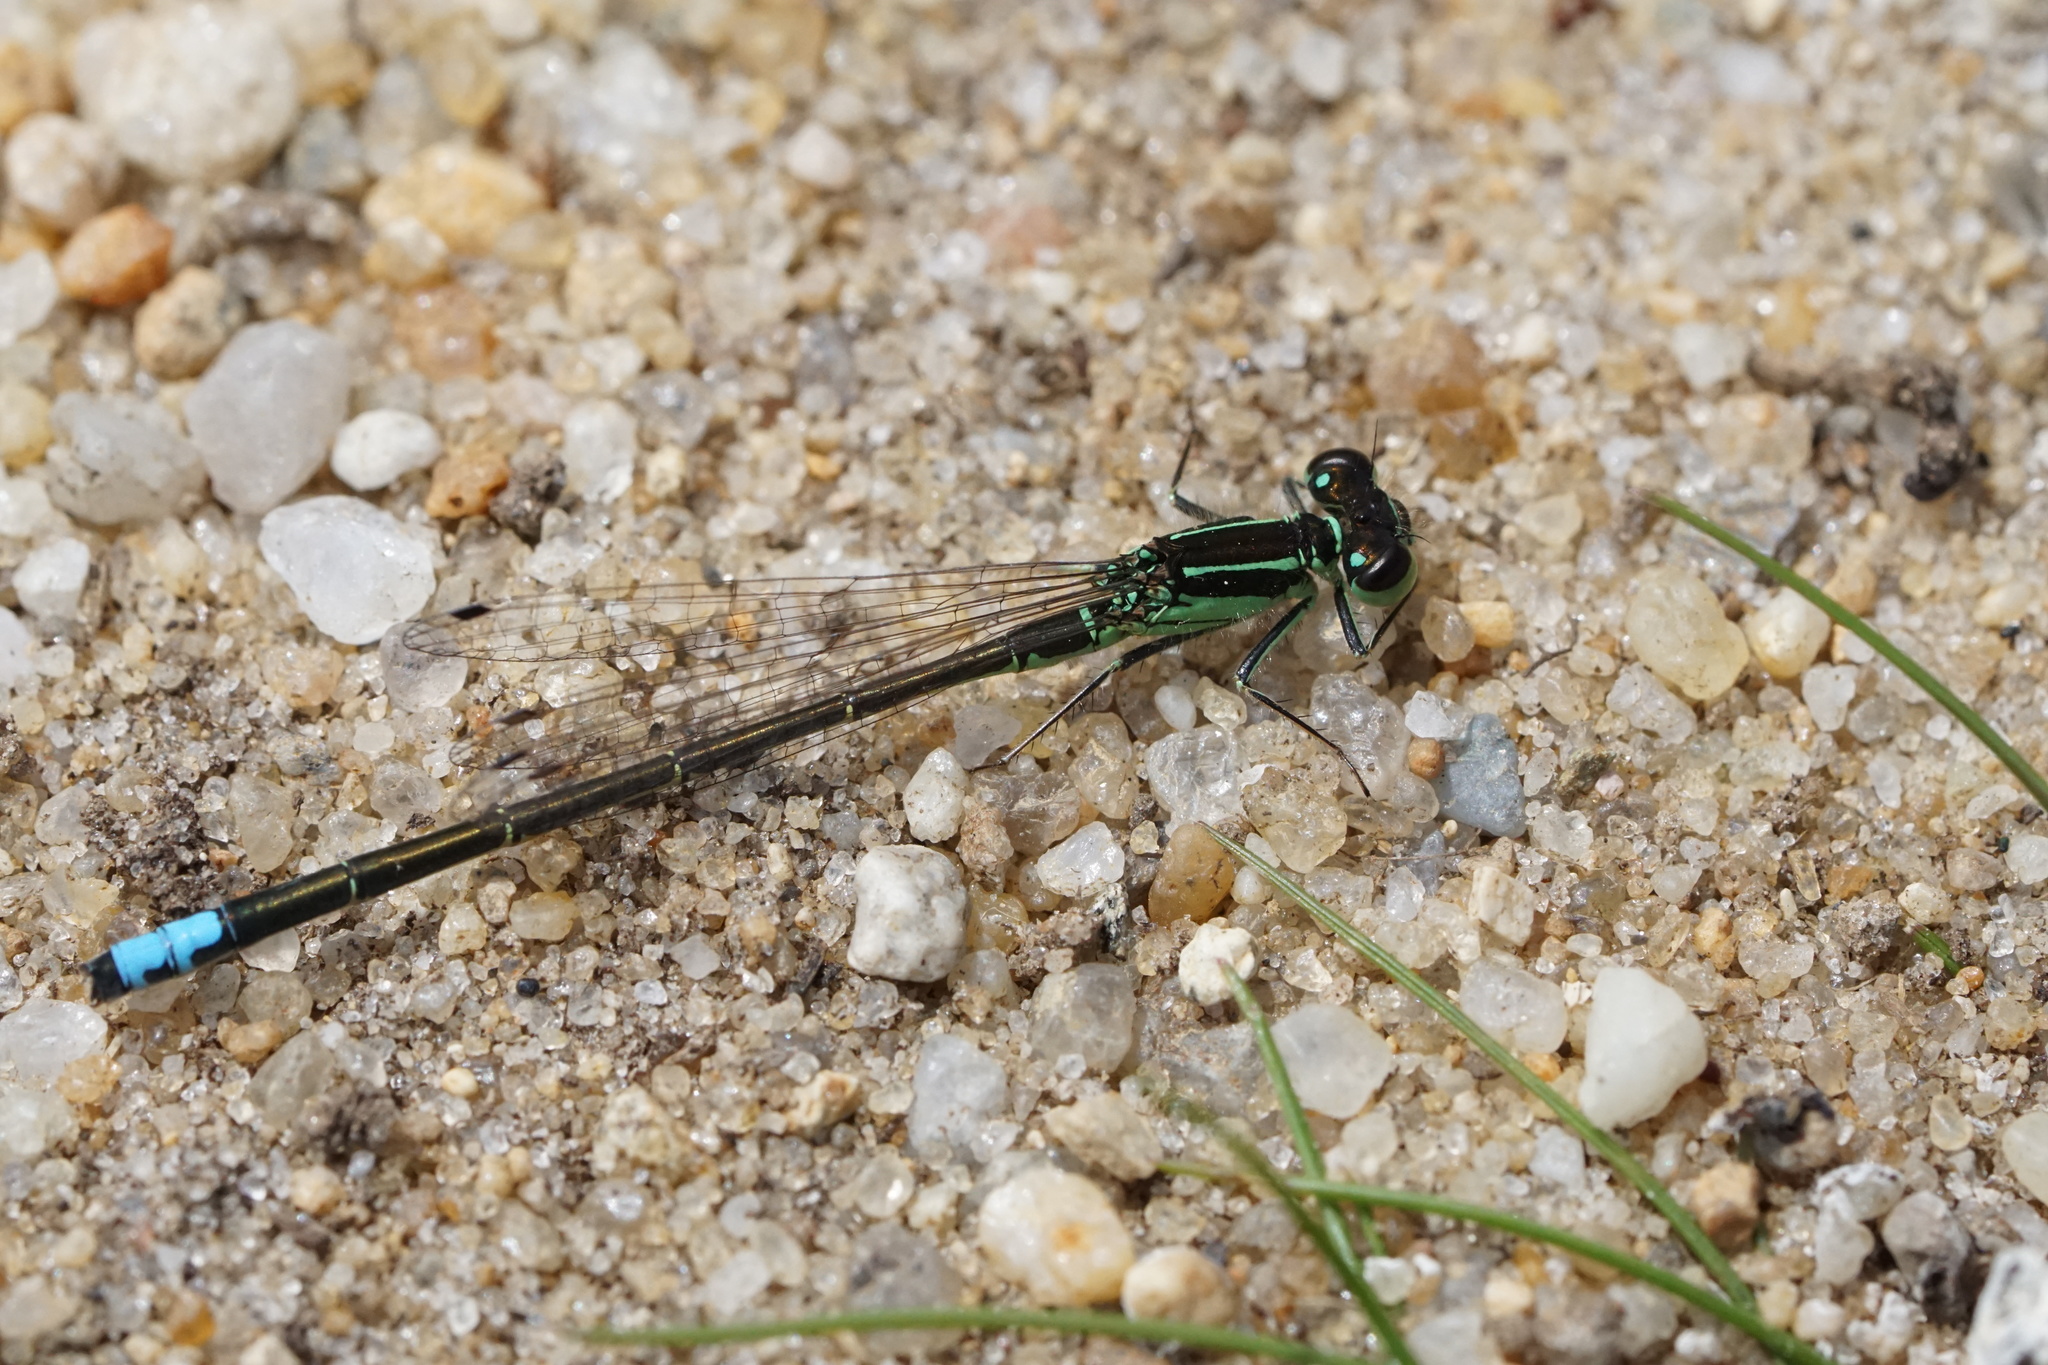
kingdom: Animalia
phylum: Arthropoda
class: Insecta
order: Odonata
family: Coenagrionidae
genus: Ischnura
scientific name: Ischnura verticalis
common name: Eastern forktail
